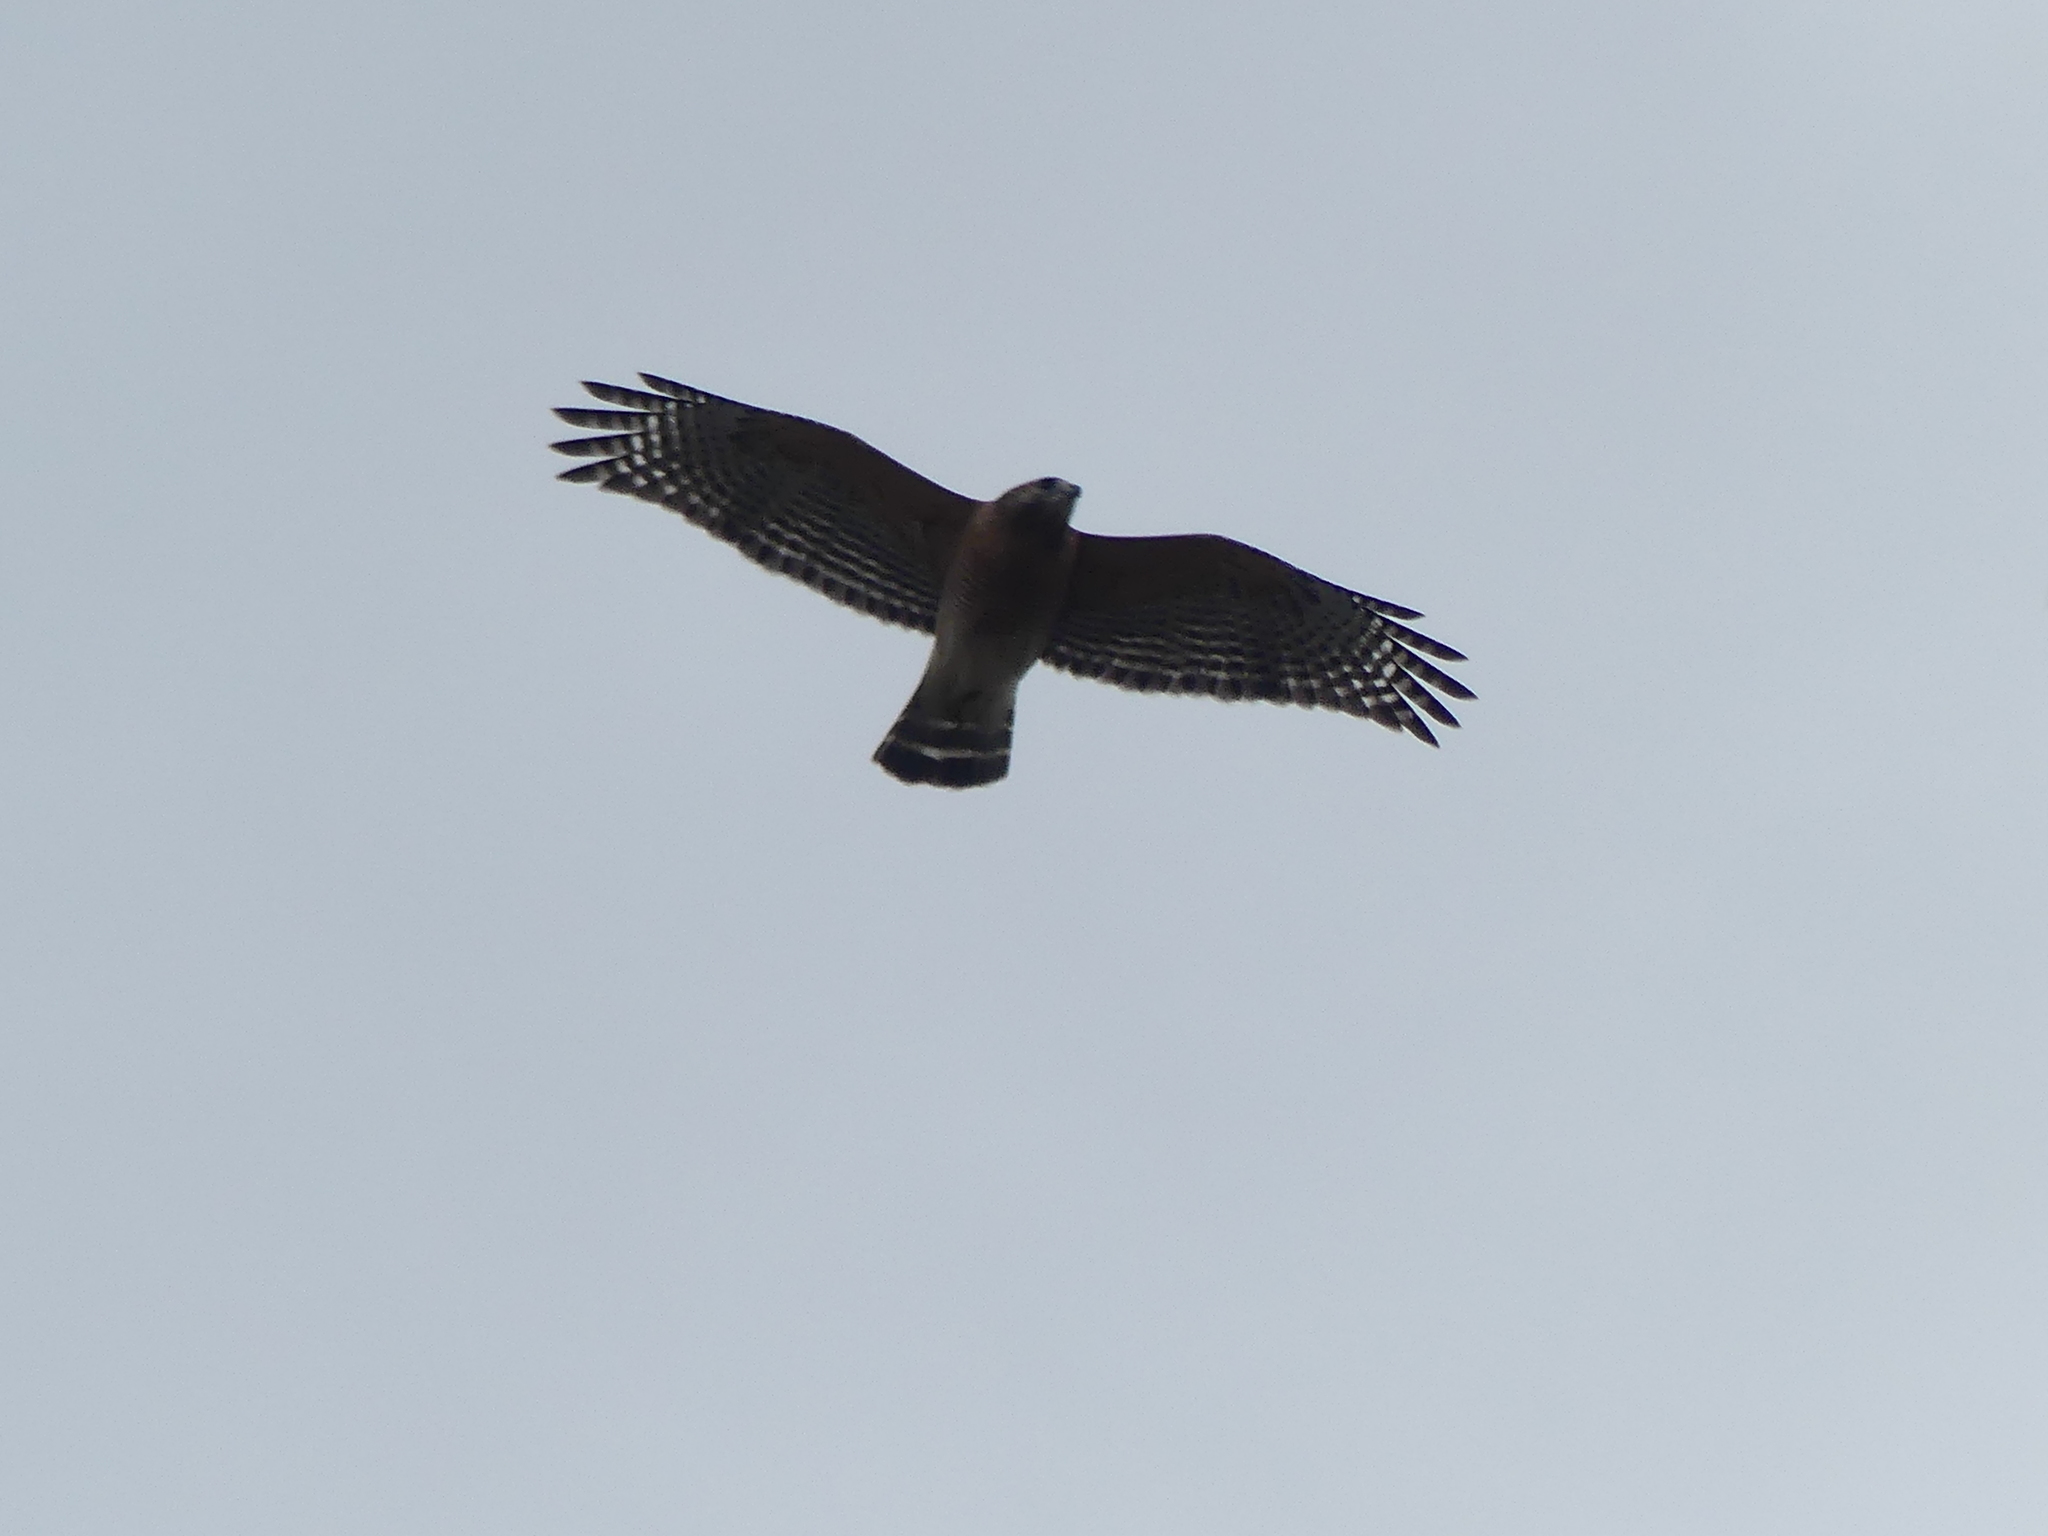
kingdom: Animalia
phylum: Chordata
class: Aves
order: Accipitriformes
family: Accipitridae
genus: Buteo
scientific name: Buteo lineatus
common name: Red-shouldered hawk
